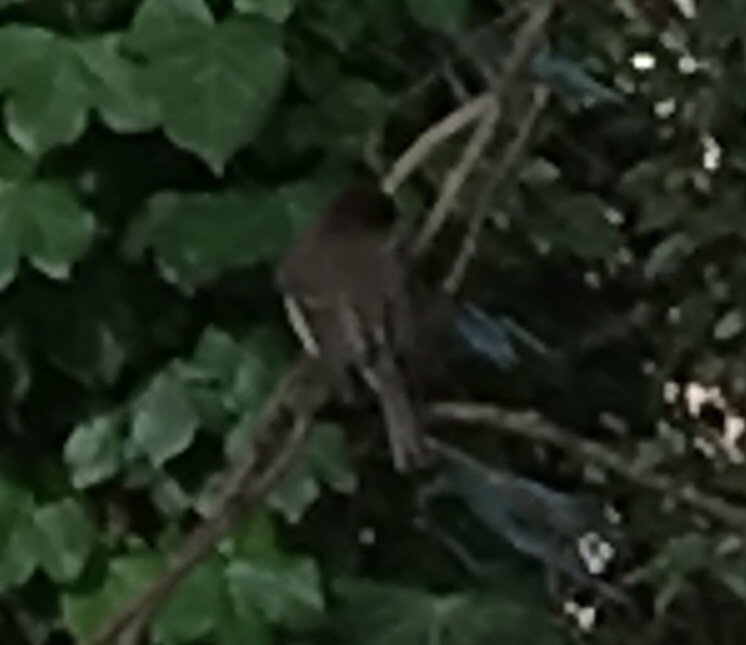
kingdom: Animalia
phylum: Chordata
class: Aves
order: Passeriformes
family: Tyrannidae
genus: Sayornis
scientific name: Sayornis phoebe
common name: Eastern phoebe
